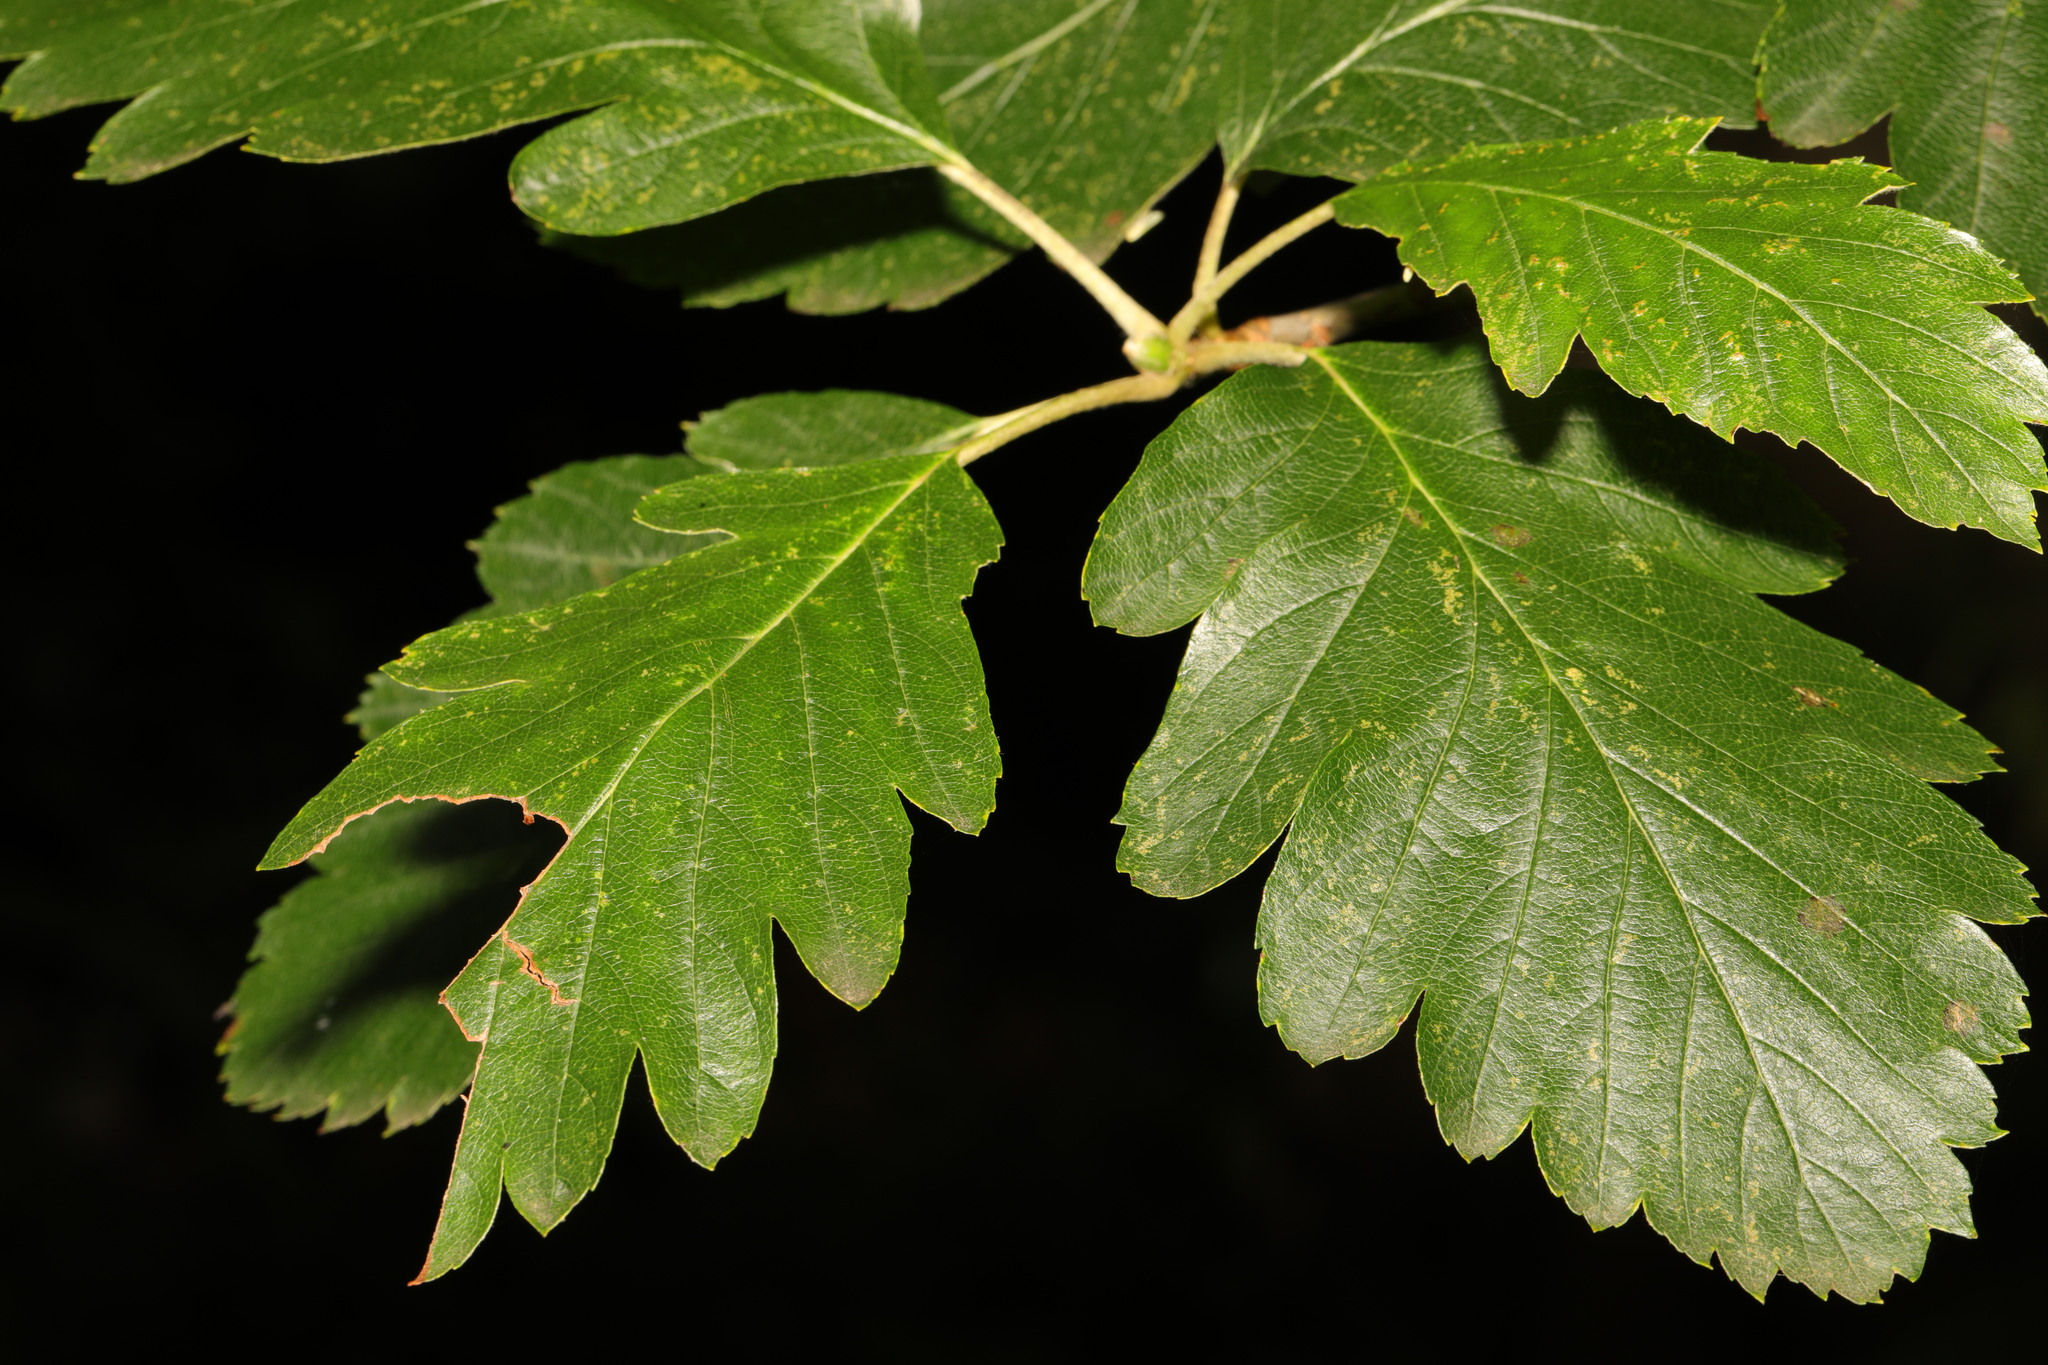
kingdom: Plantae
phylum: Tracheophyta
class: Magnoliopsida
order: Rosales
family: Rosaceae
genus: Scandosorbus
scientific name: Scandosorbus intermedia
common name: Swedish whitebeam
